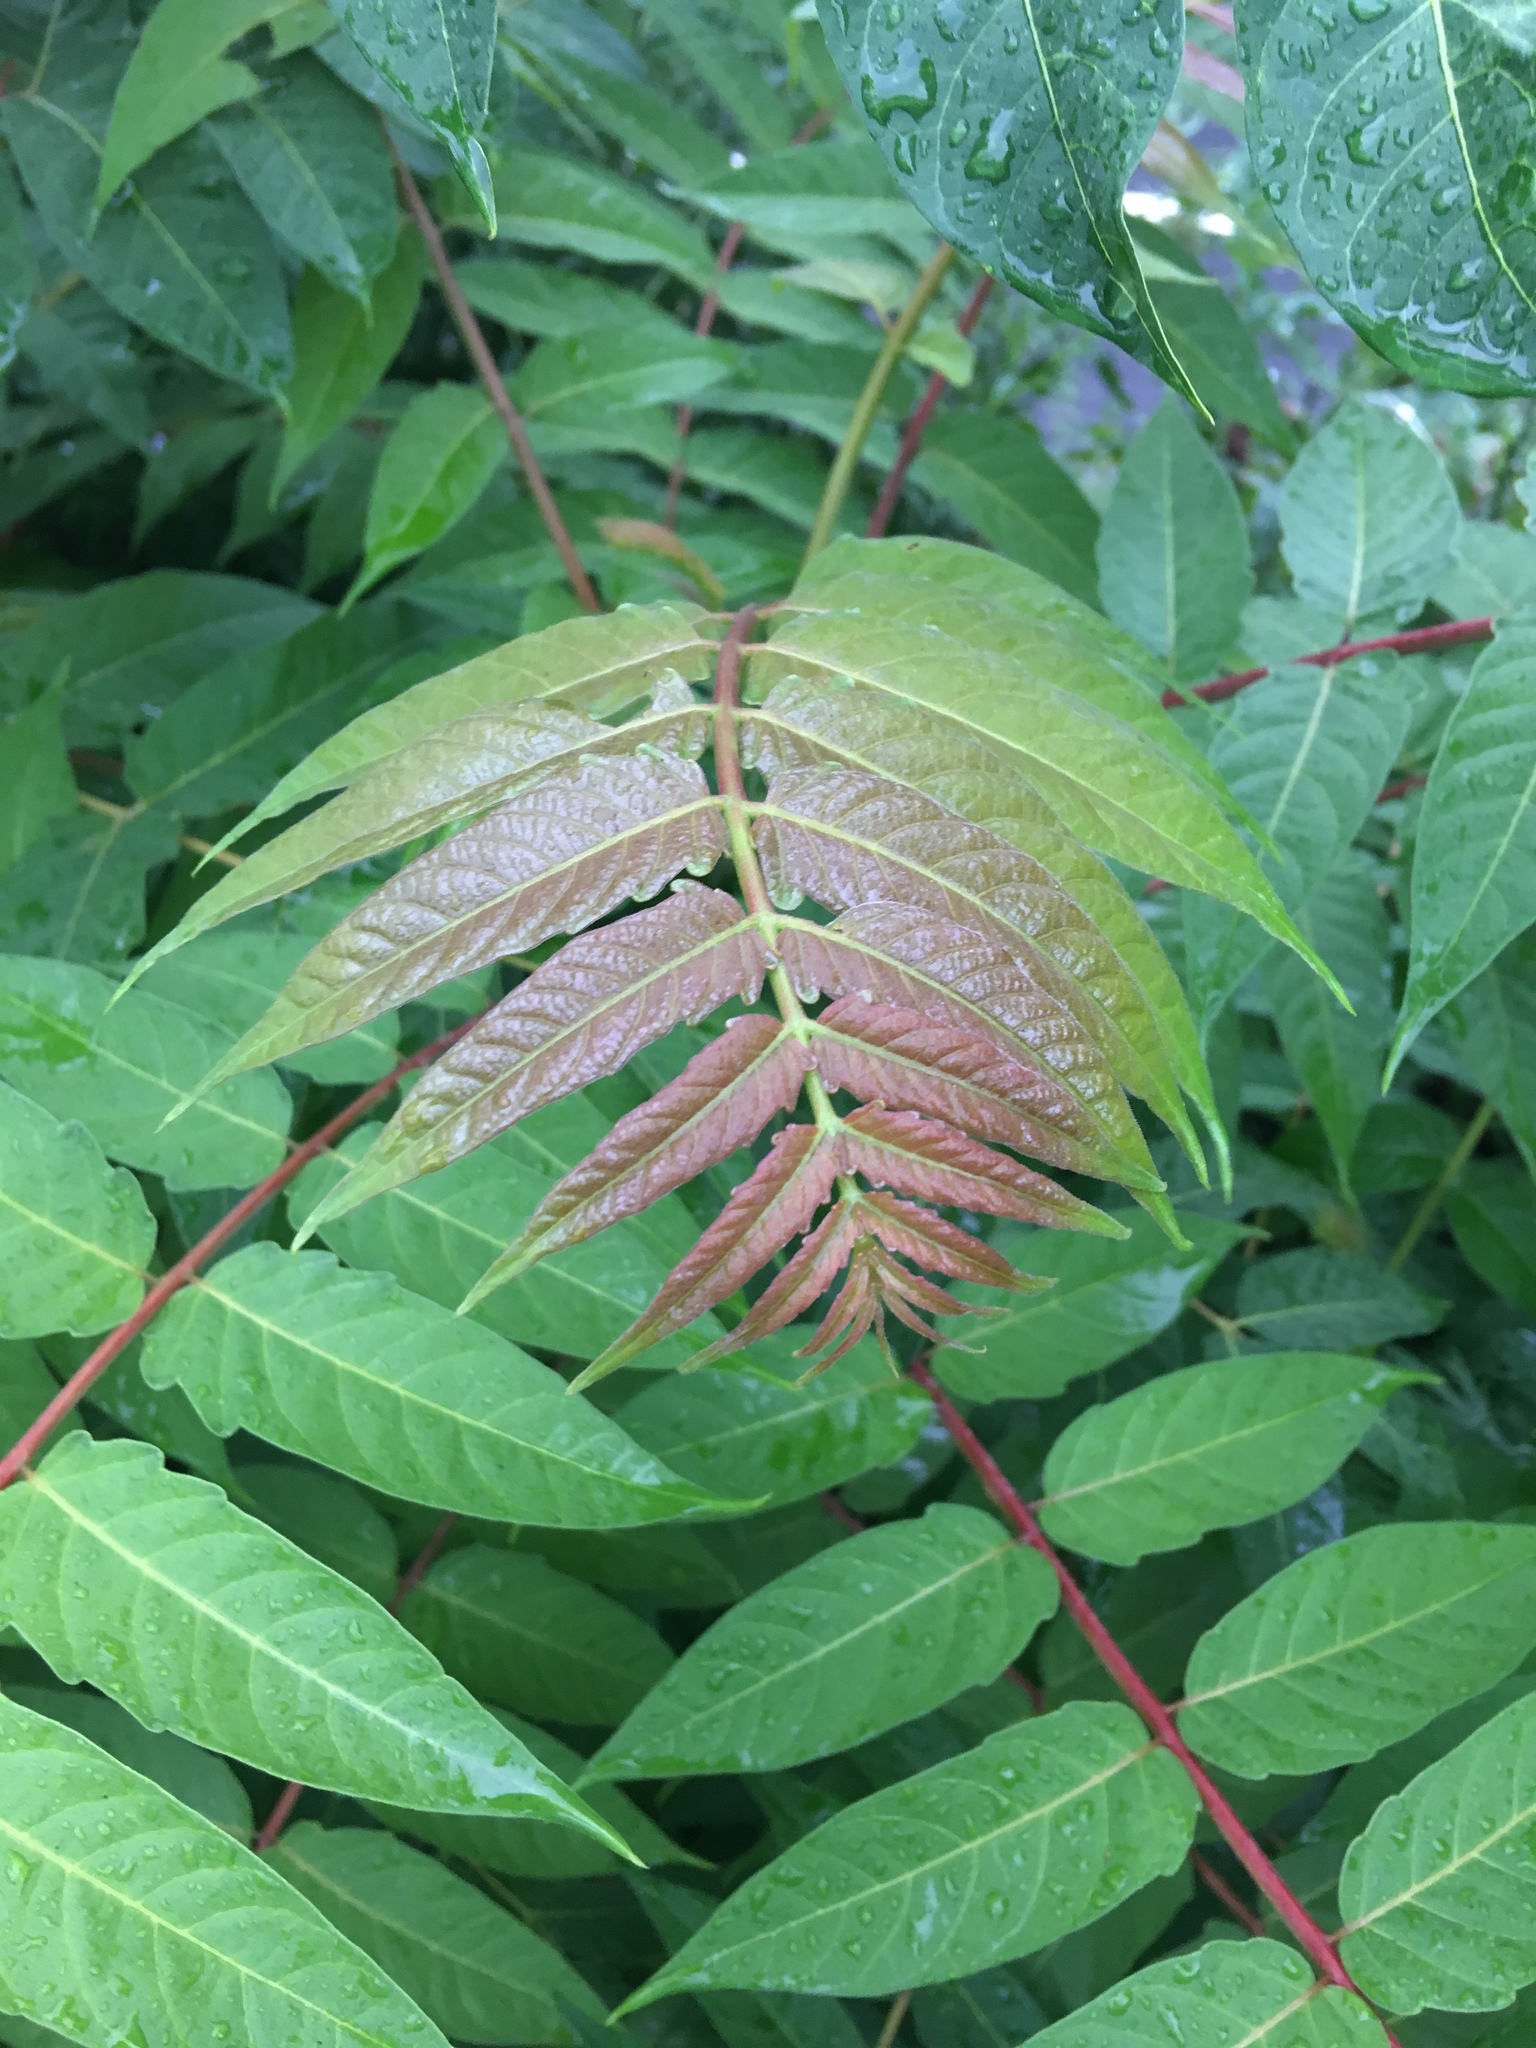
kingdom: Plantae
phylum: Tracheophyta
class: Magnoliopsida
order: Sapindales
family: Simaroubaceae
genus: Ailanthus
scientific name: Ailanthus altissima
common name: Tree-of-heaven
